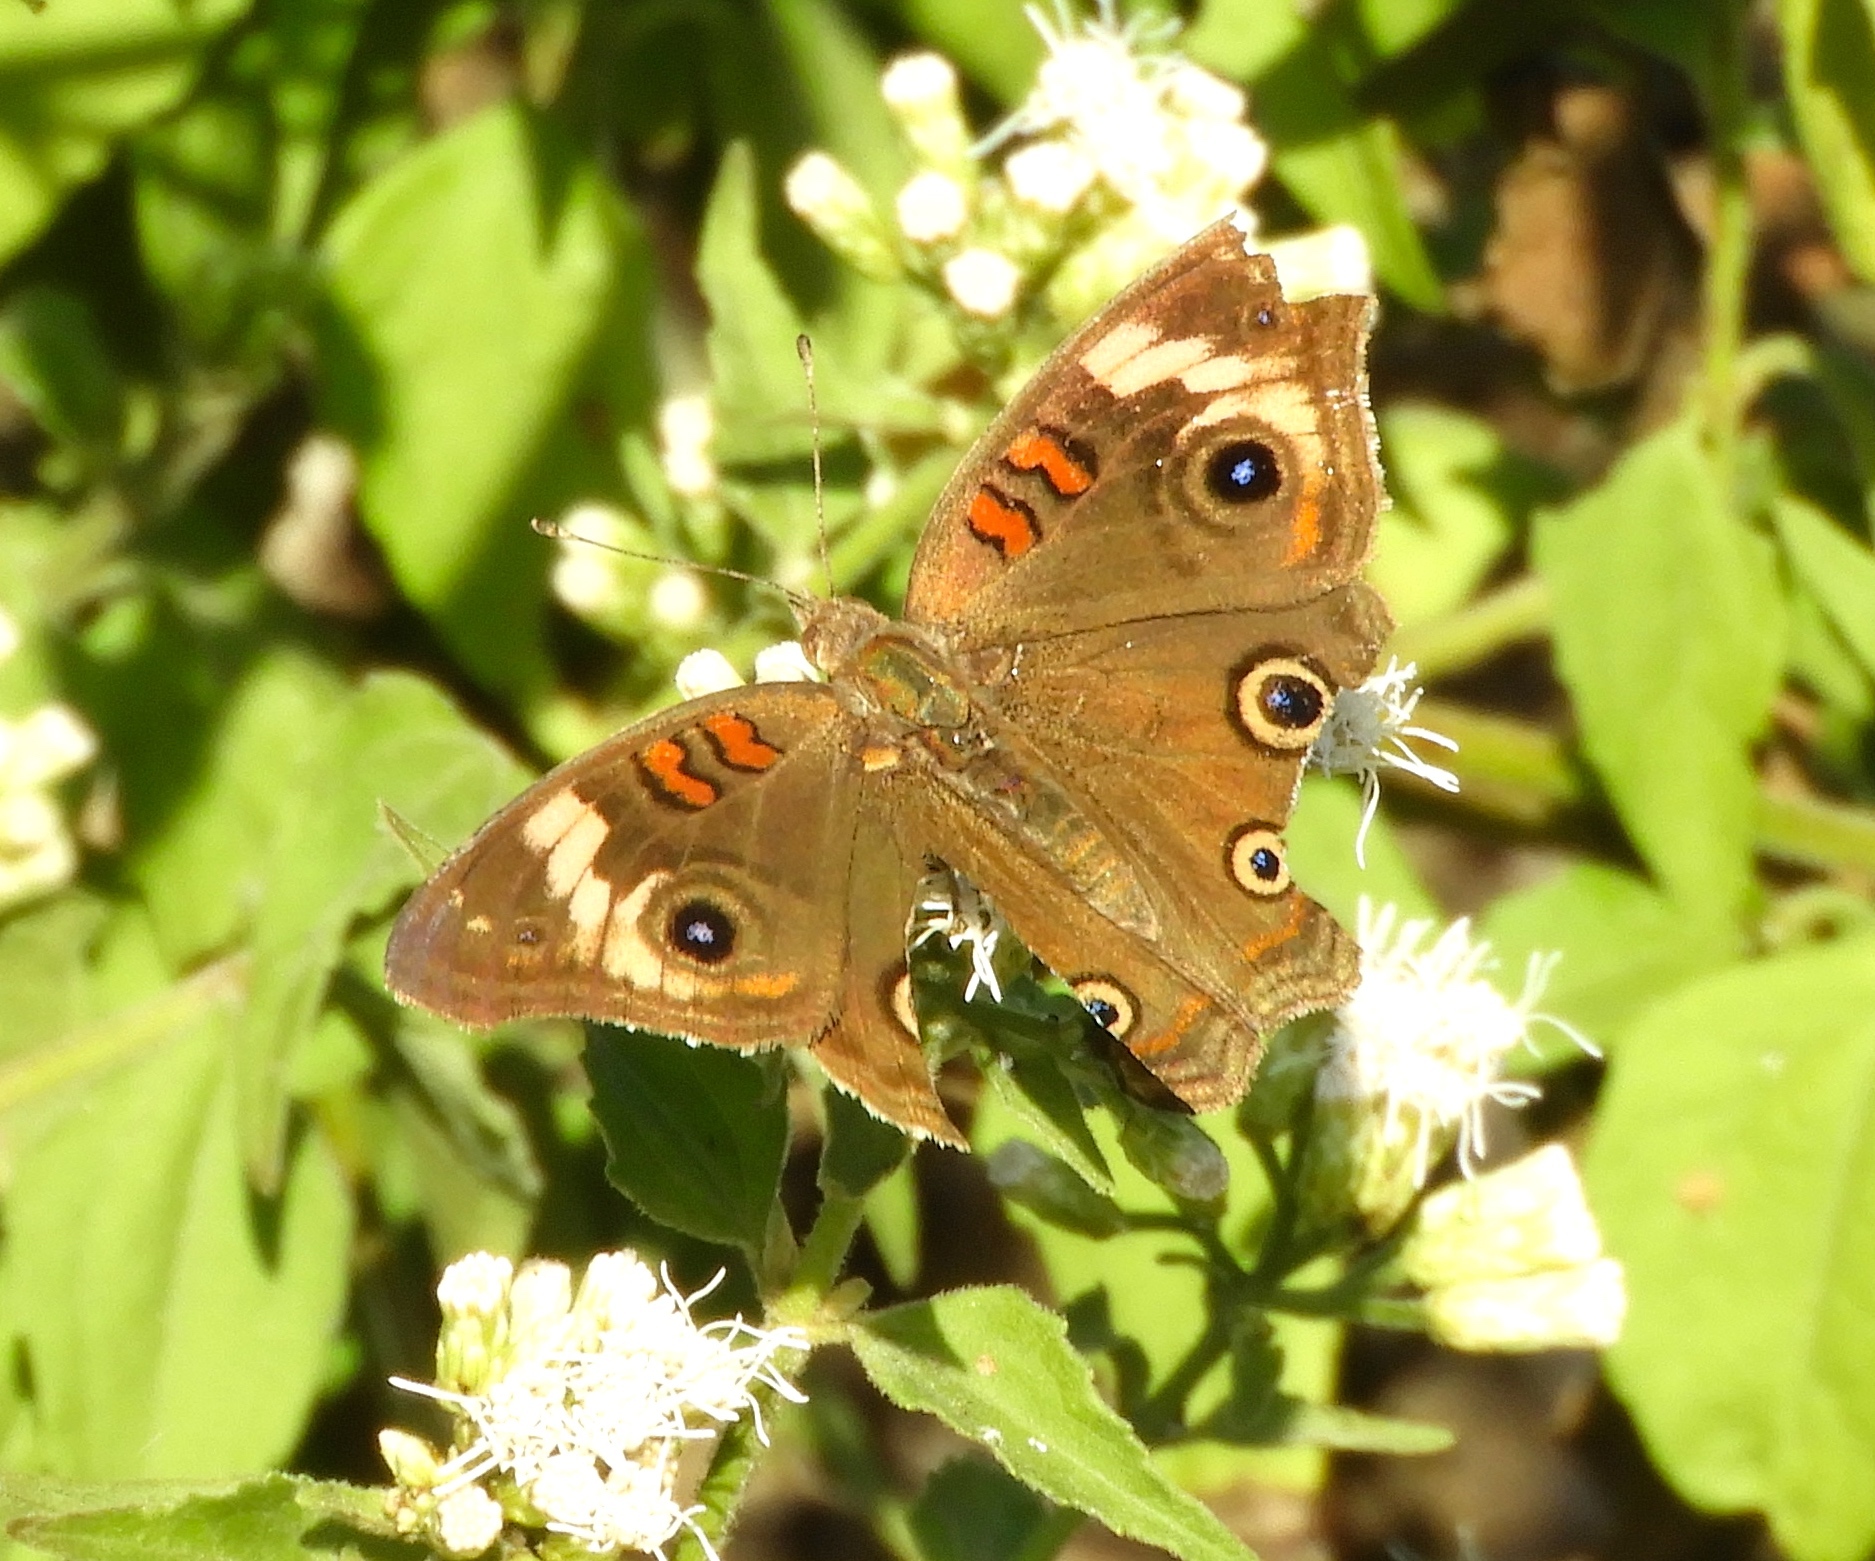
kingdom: Animalia
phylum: Arthropoda
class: Insecta
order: Lepidoptera
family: Nymphalidae
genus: Junonia
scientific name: Junonia
